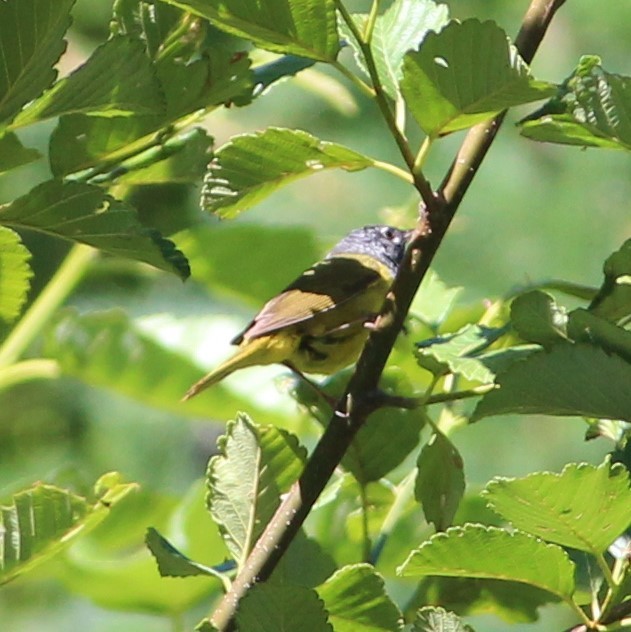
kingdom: Animalia
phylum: Chordata
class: Aves
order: Passeriformes
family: Parulidae
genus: Geothlypis
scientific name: Geothlypis tolmiei
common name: Macgillivray's warbler
